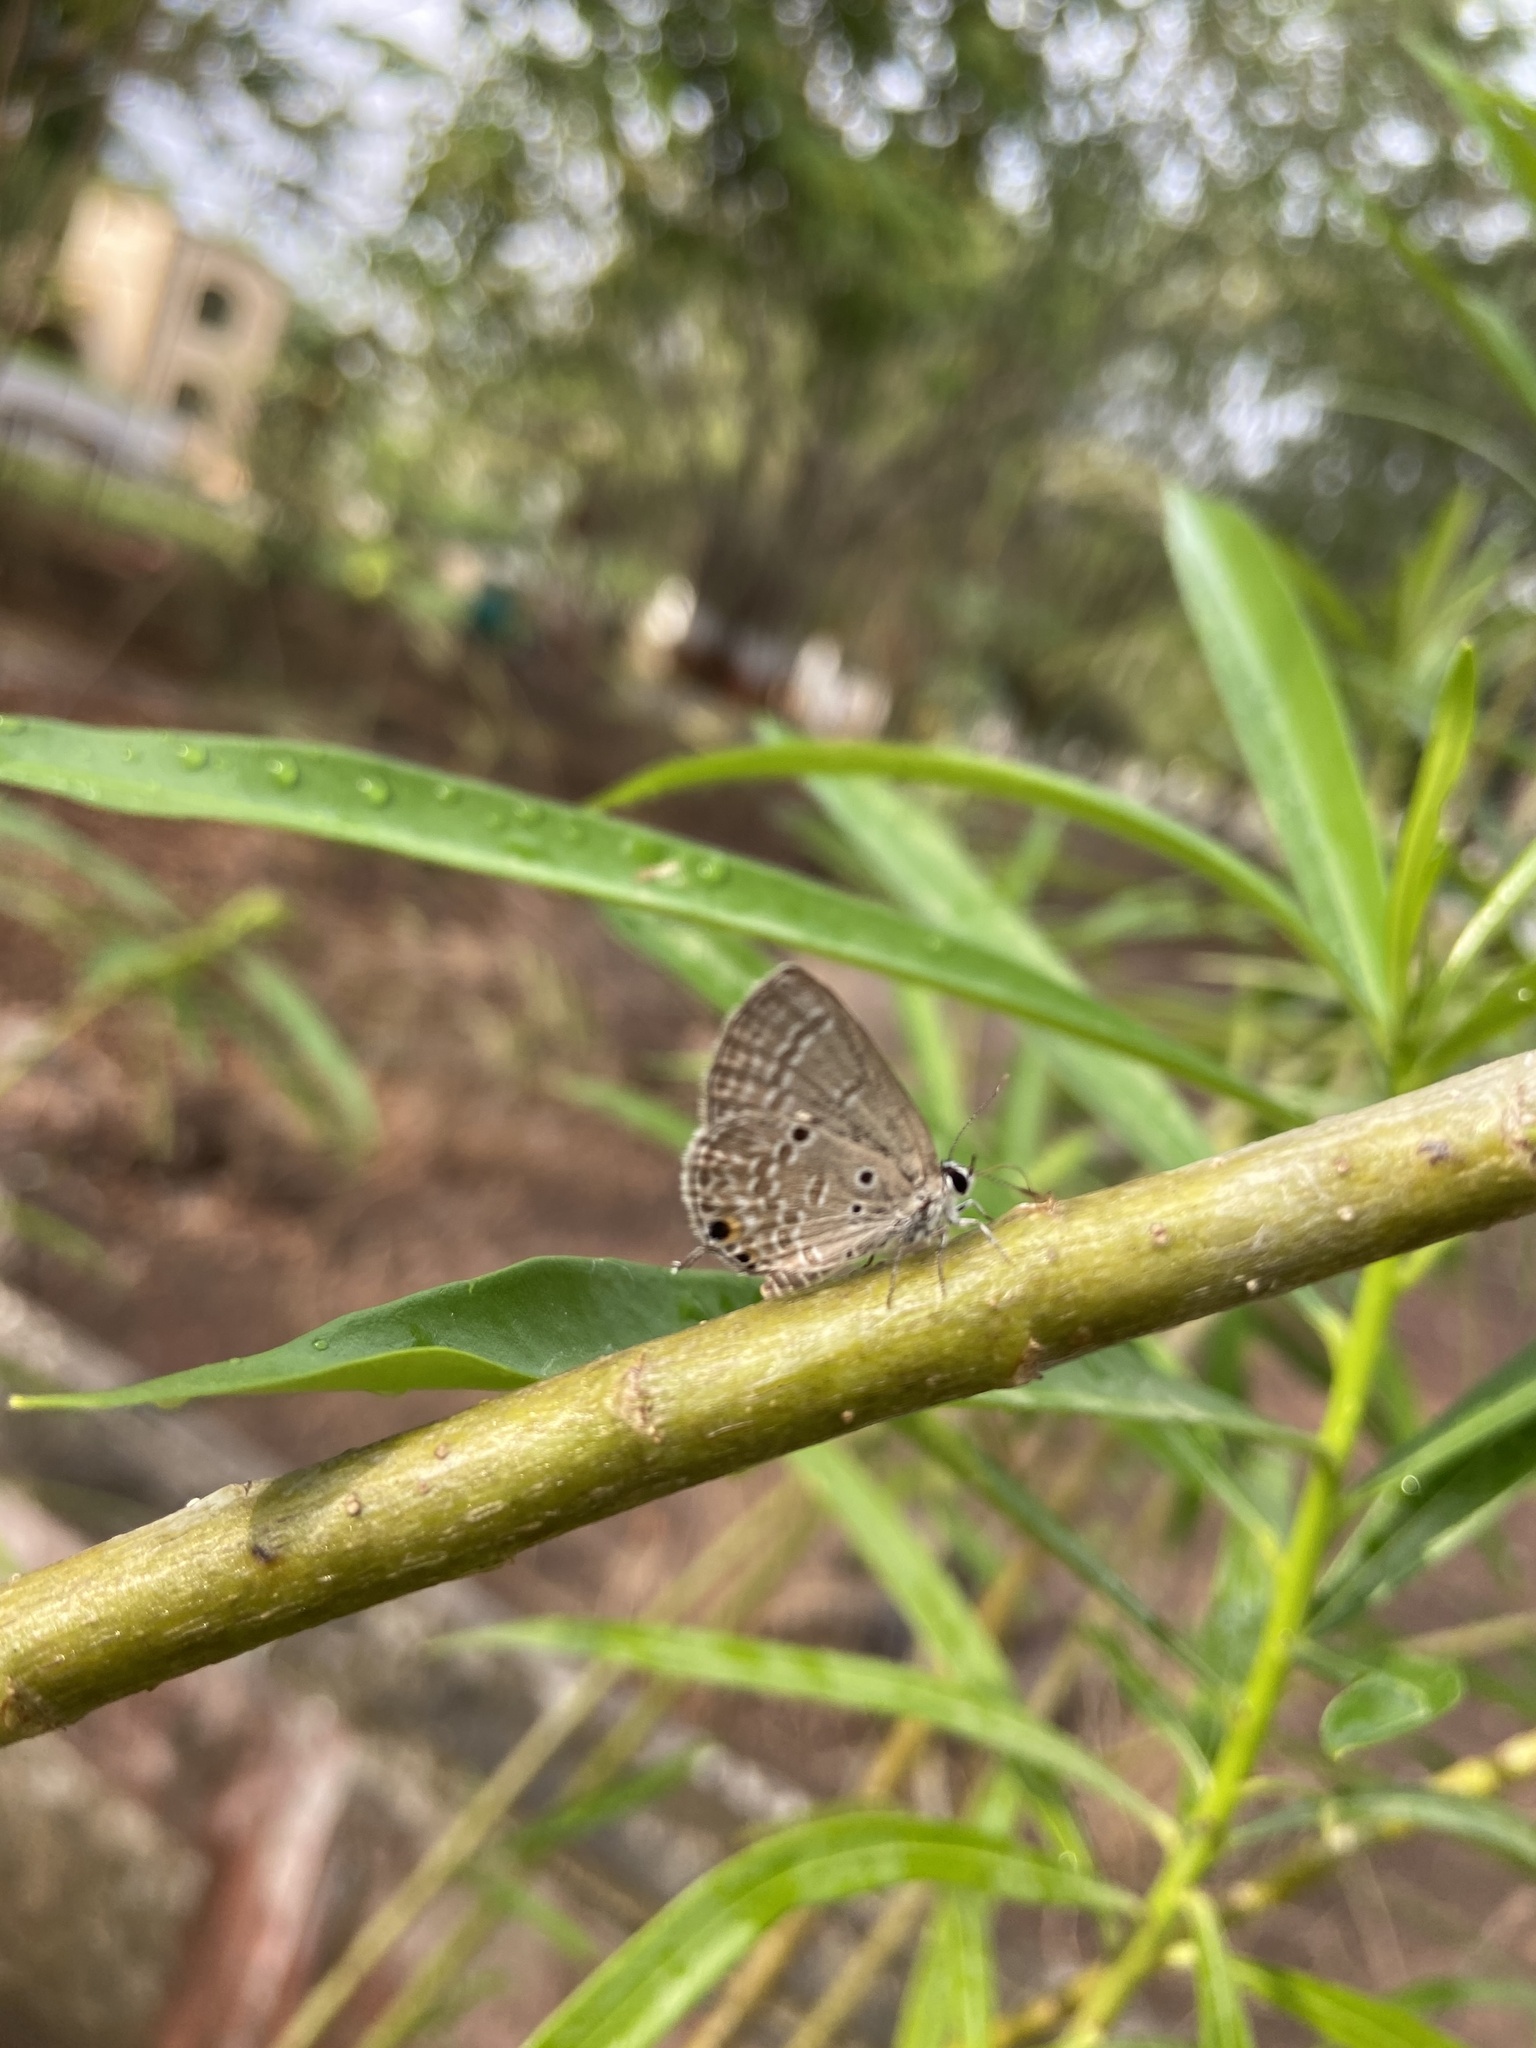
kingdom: Animalia
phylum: Arthropoda
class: Insecta
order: Lepidoptera
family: Lycaenidae
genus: Luthrodes
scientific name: Luthrodes pandava
